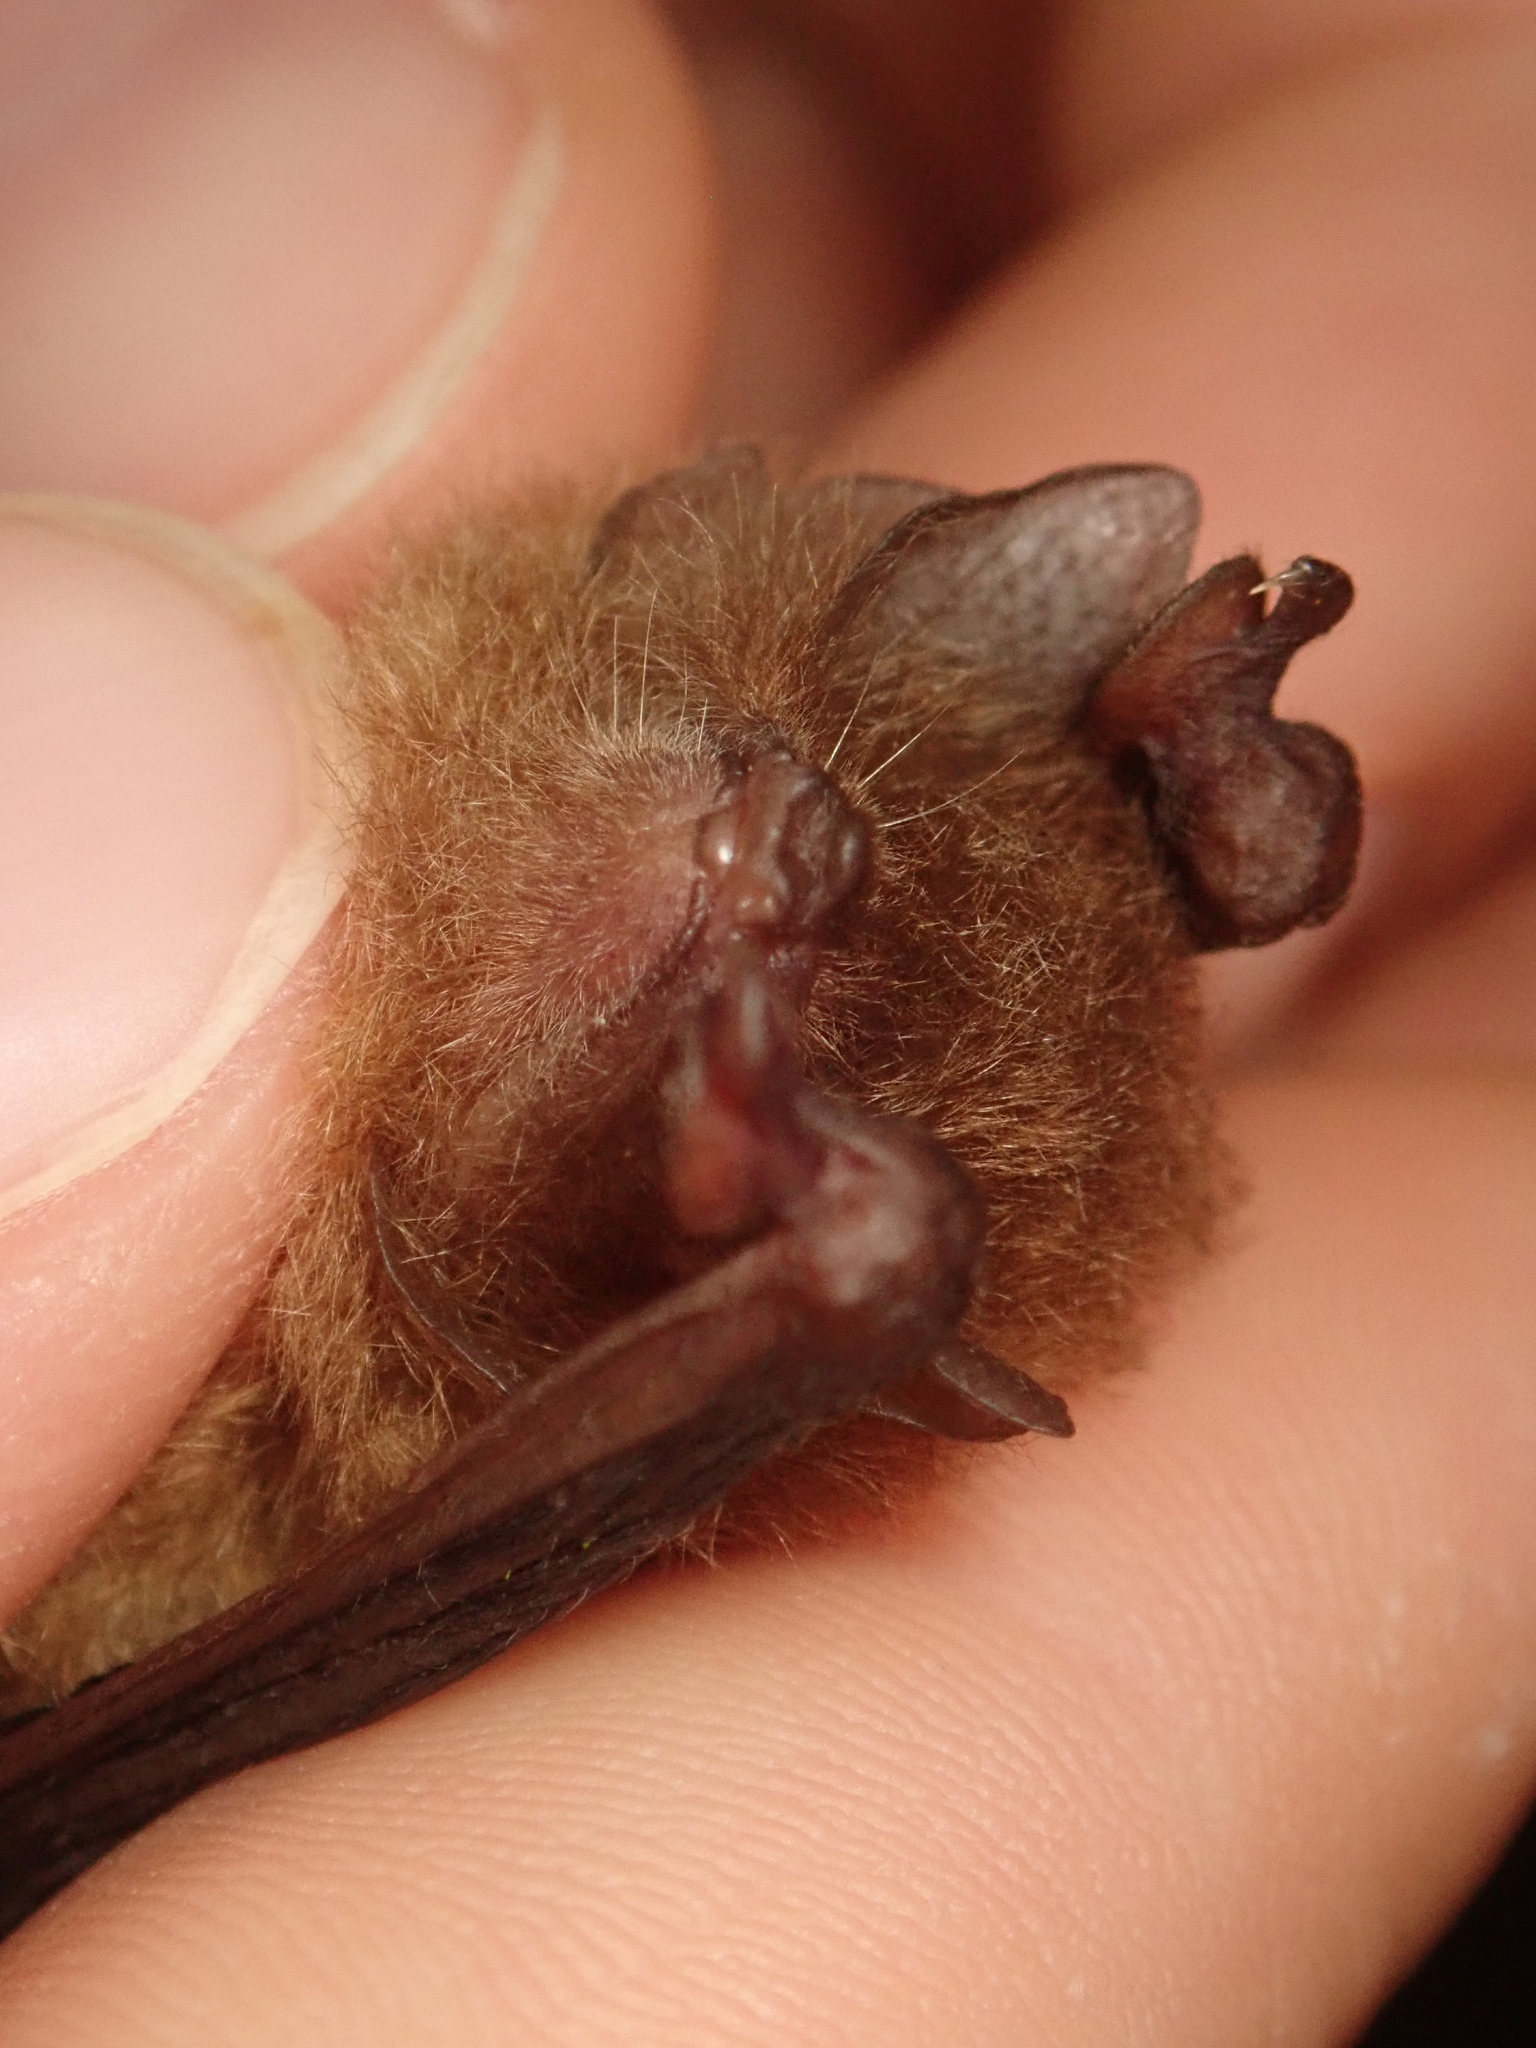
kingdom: Animalia
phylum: Chordata
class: Mammalia
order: Chiroptera
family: Thyropteridae
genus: Thyroptera
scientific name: Thyroptera discifera
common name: Peters's disk-winged bat
